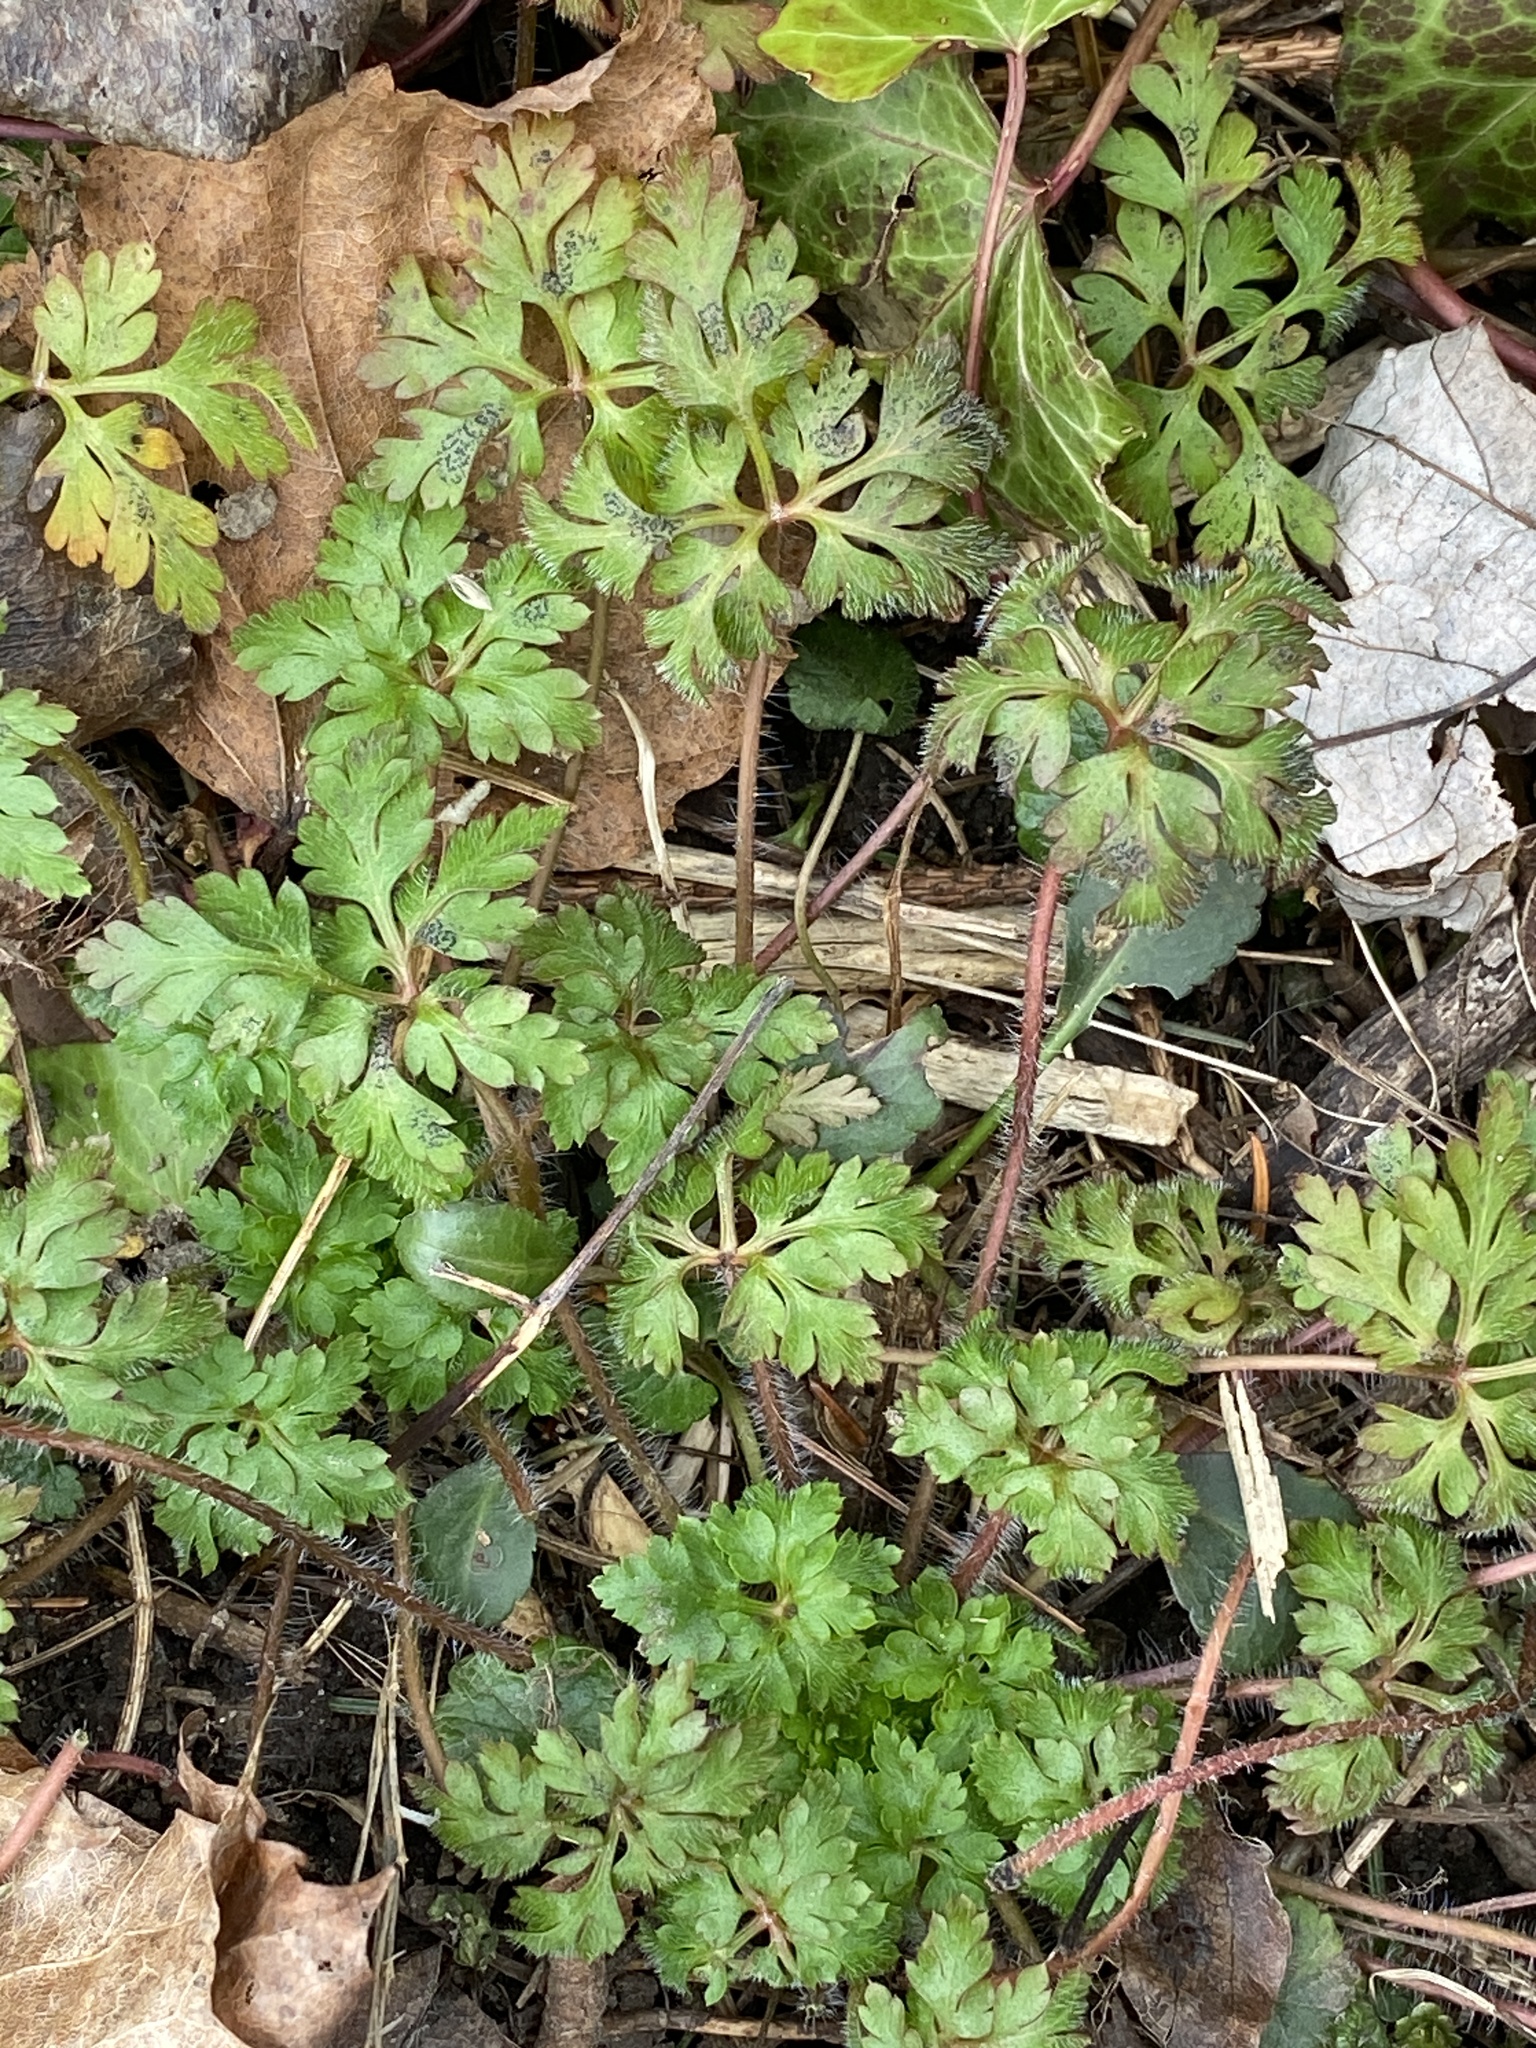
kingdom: Plantae
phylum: Tracheophyta
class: Magnoliopsida
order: Geraniales
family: Geraniaceae
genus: Geranium
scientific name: Geranium robertianum
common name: Herb-robert
